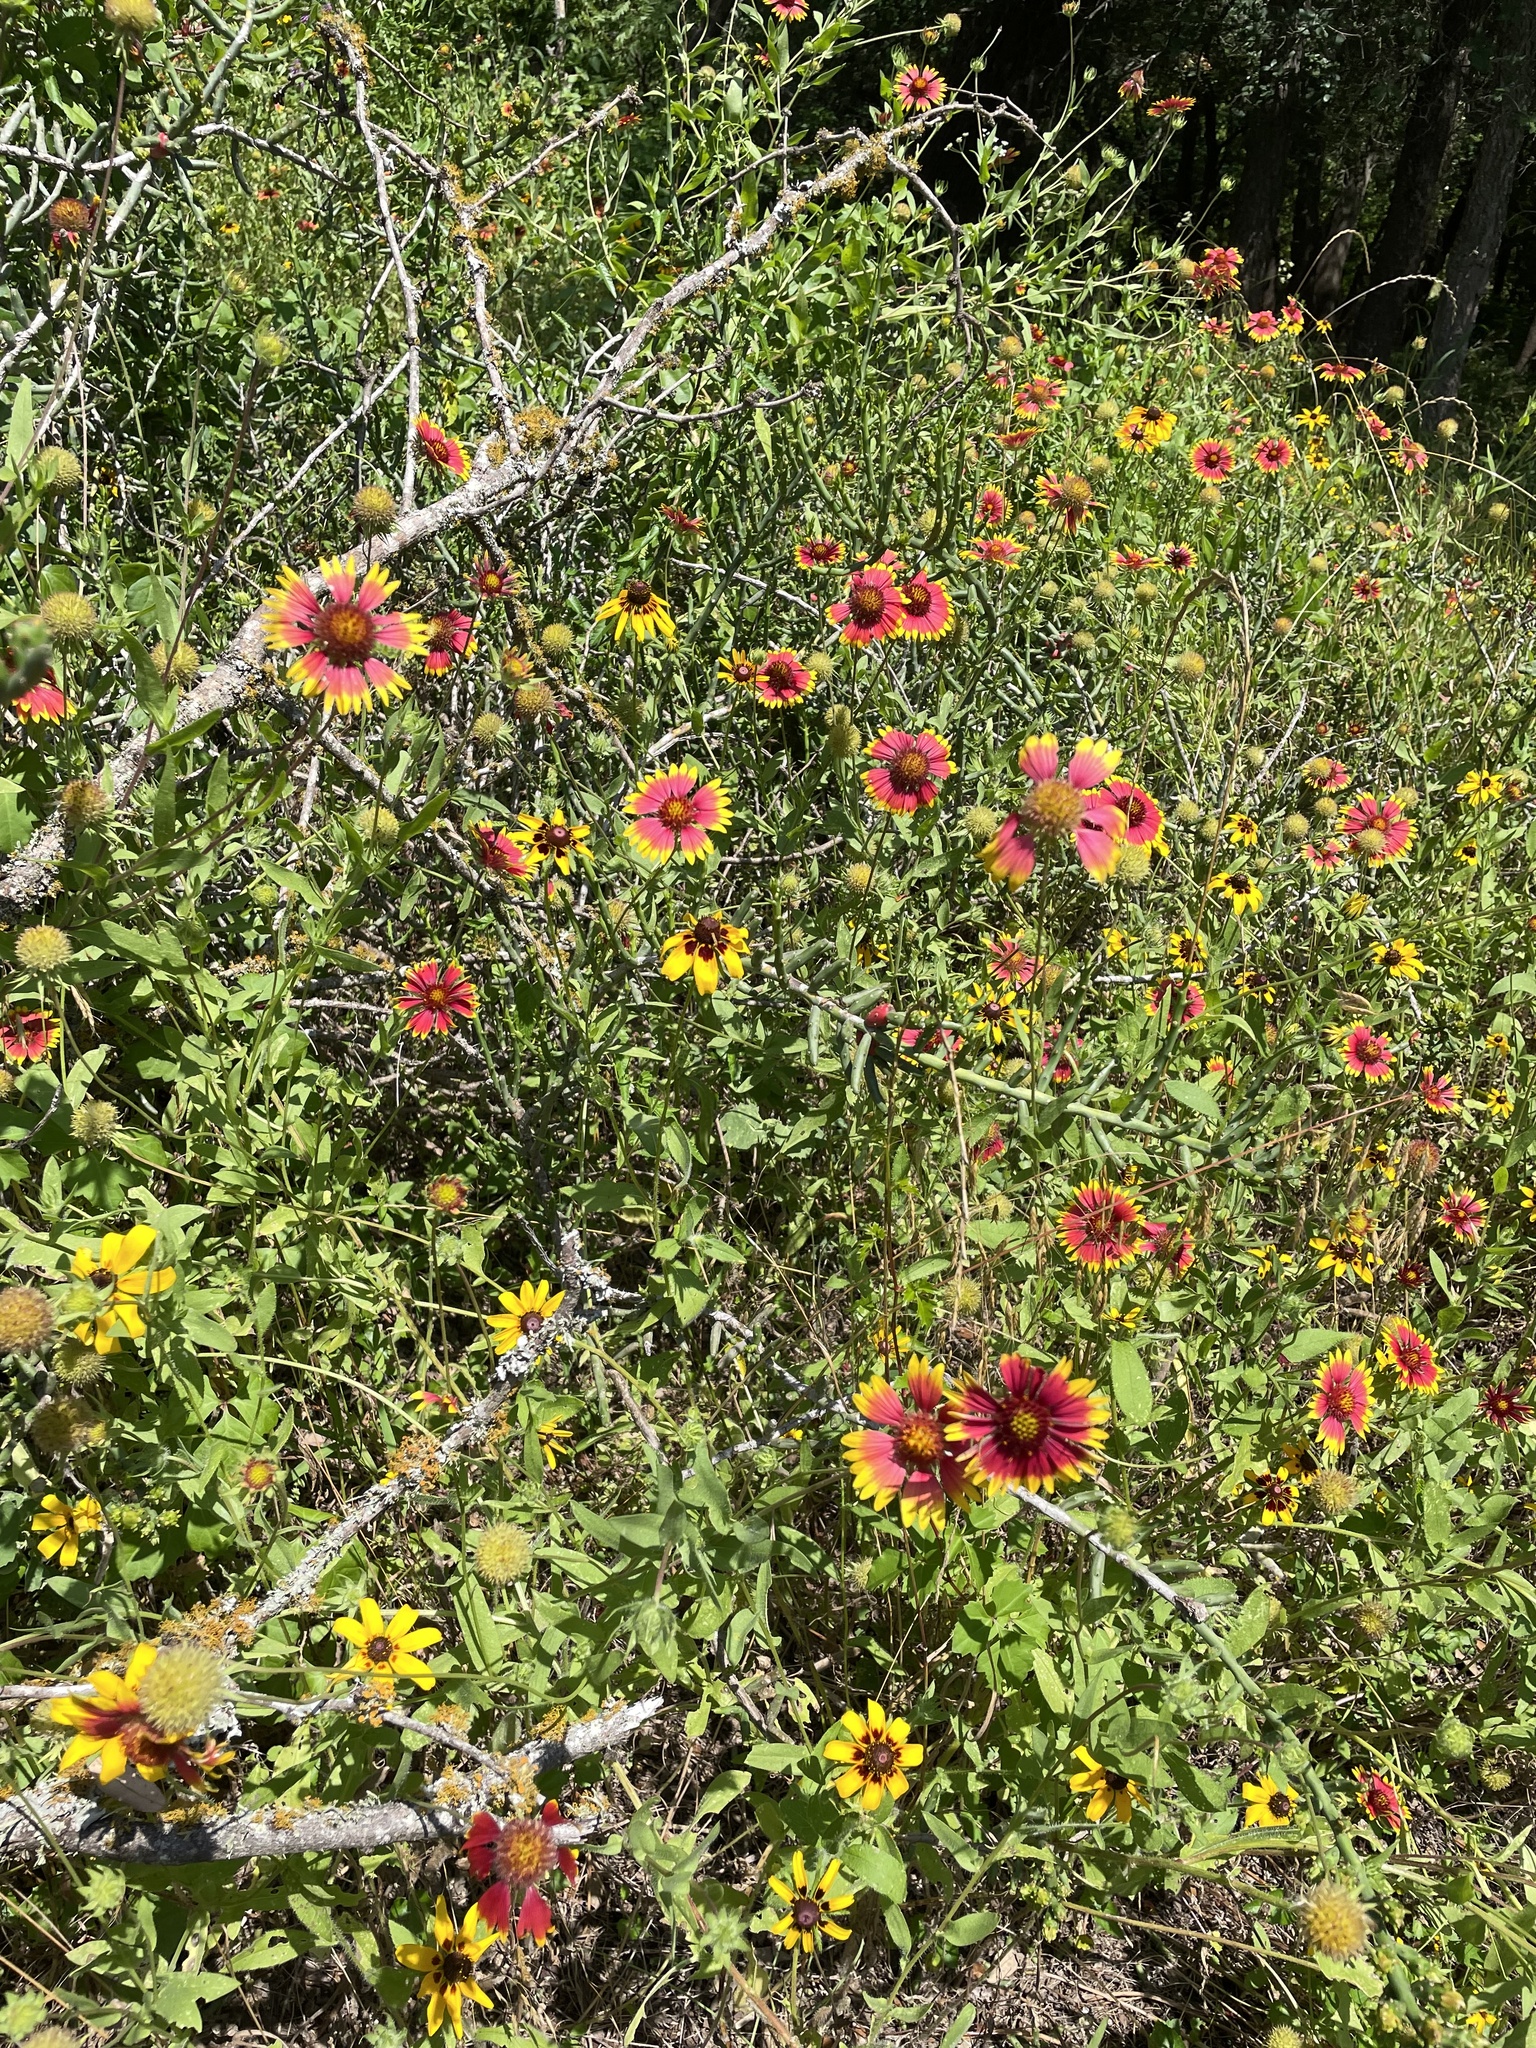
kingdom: Plantae
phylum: Tracheophyta
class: Magnoliopsida
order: Asterales
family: Asteraceae
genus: Gaillardia
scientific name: Gaillardia pulchella
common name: Firewheel
